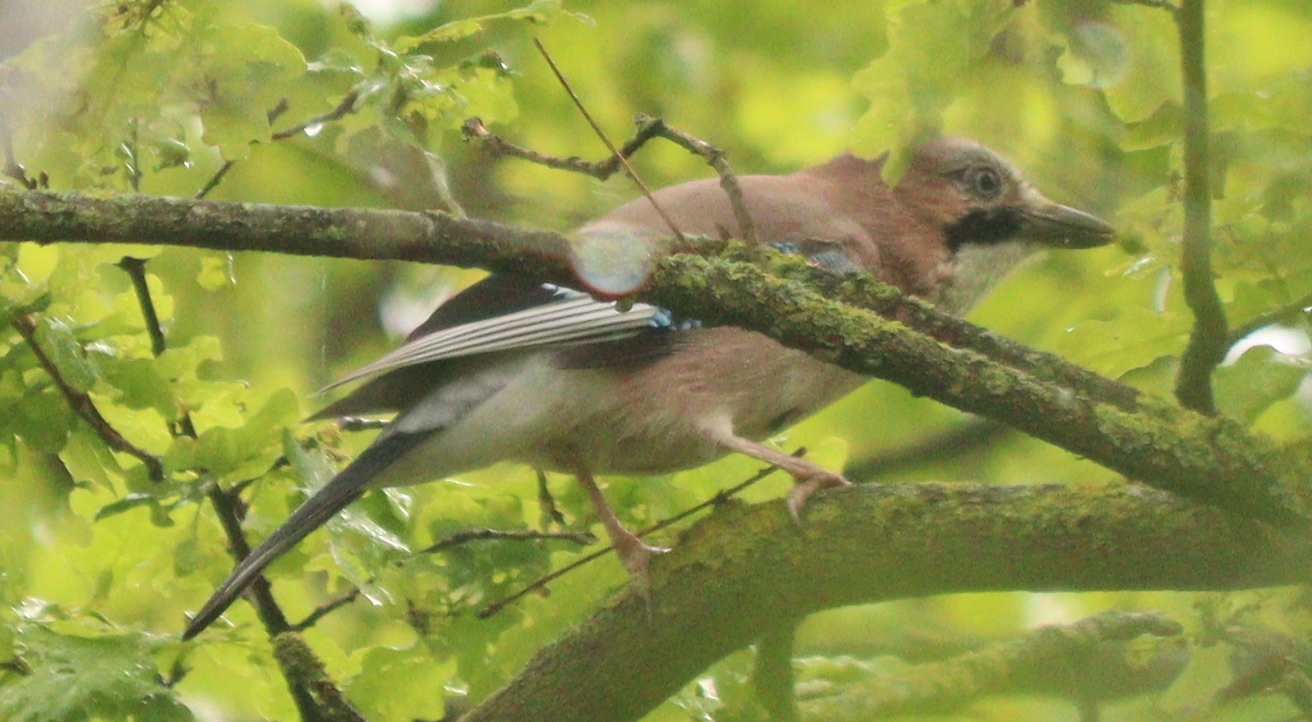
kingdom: Animalia
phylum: Chordata
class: Aves
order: Passeriformes
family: Corvidae
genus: Garrulus
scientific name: Garrulus glandarius
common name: Eurasian jay
